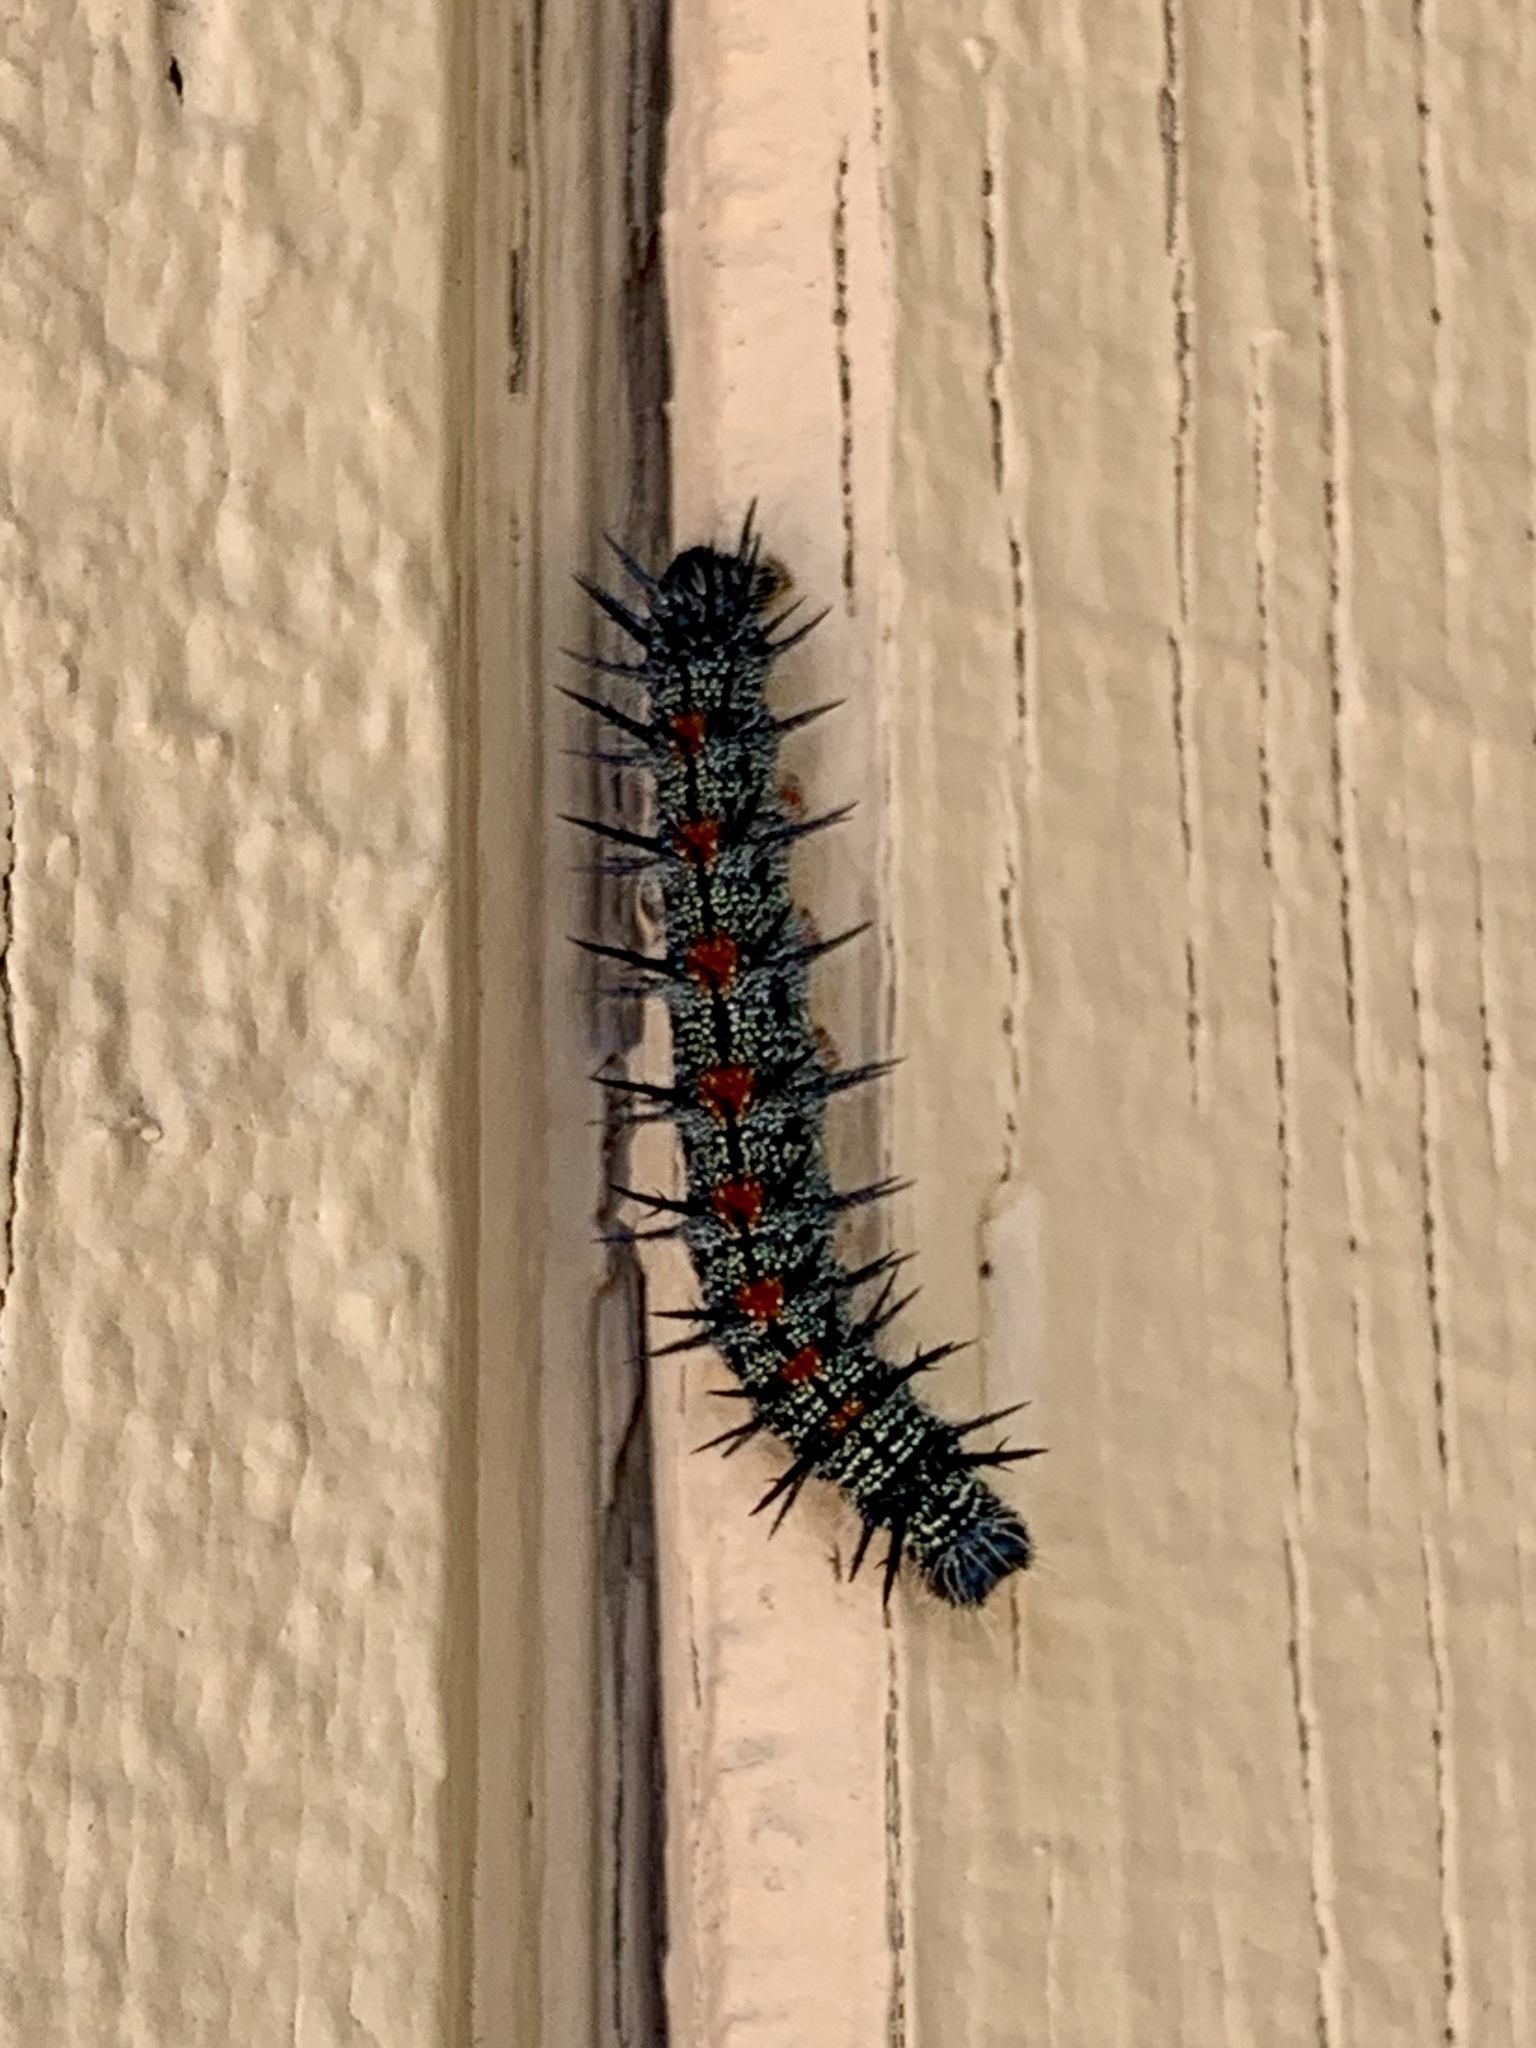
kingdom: Animalia
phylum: Arthropoda
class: Insecta
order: Lepidoptera
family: Nymphalidae
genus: Nymphalis
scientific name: Nymphalis antiopa
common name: Camberwell beauty
